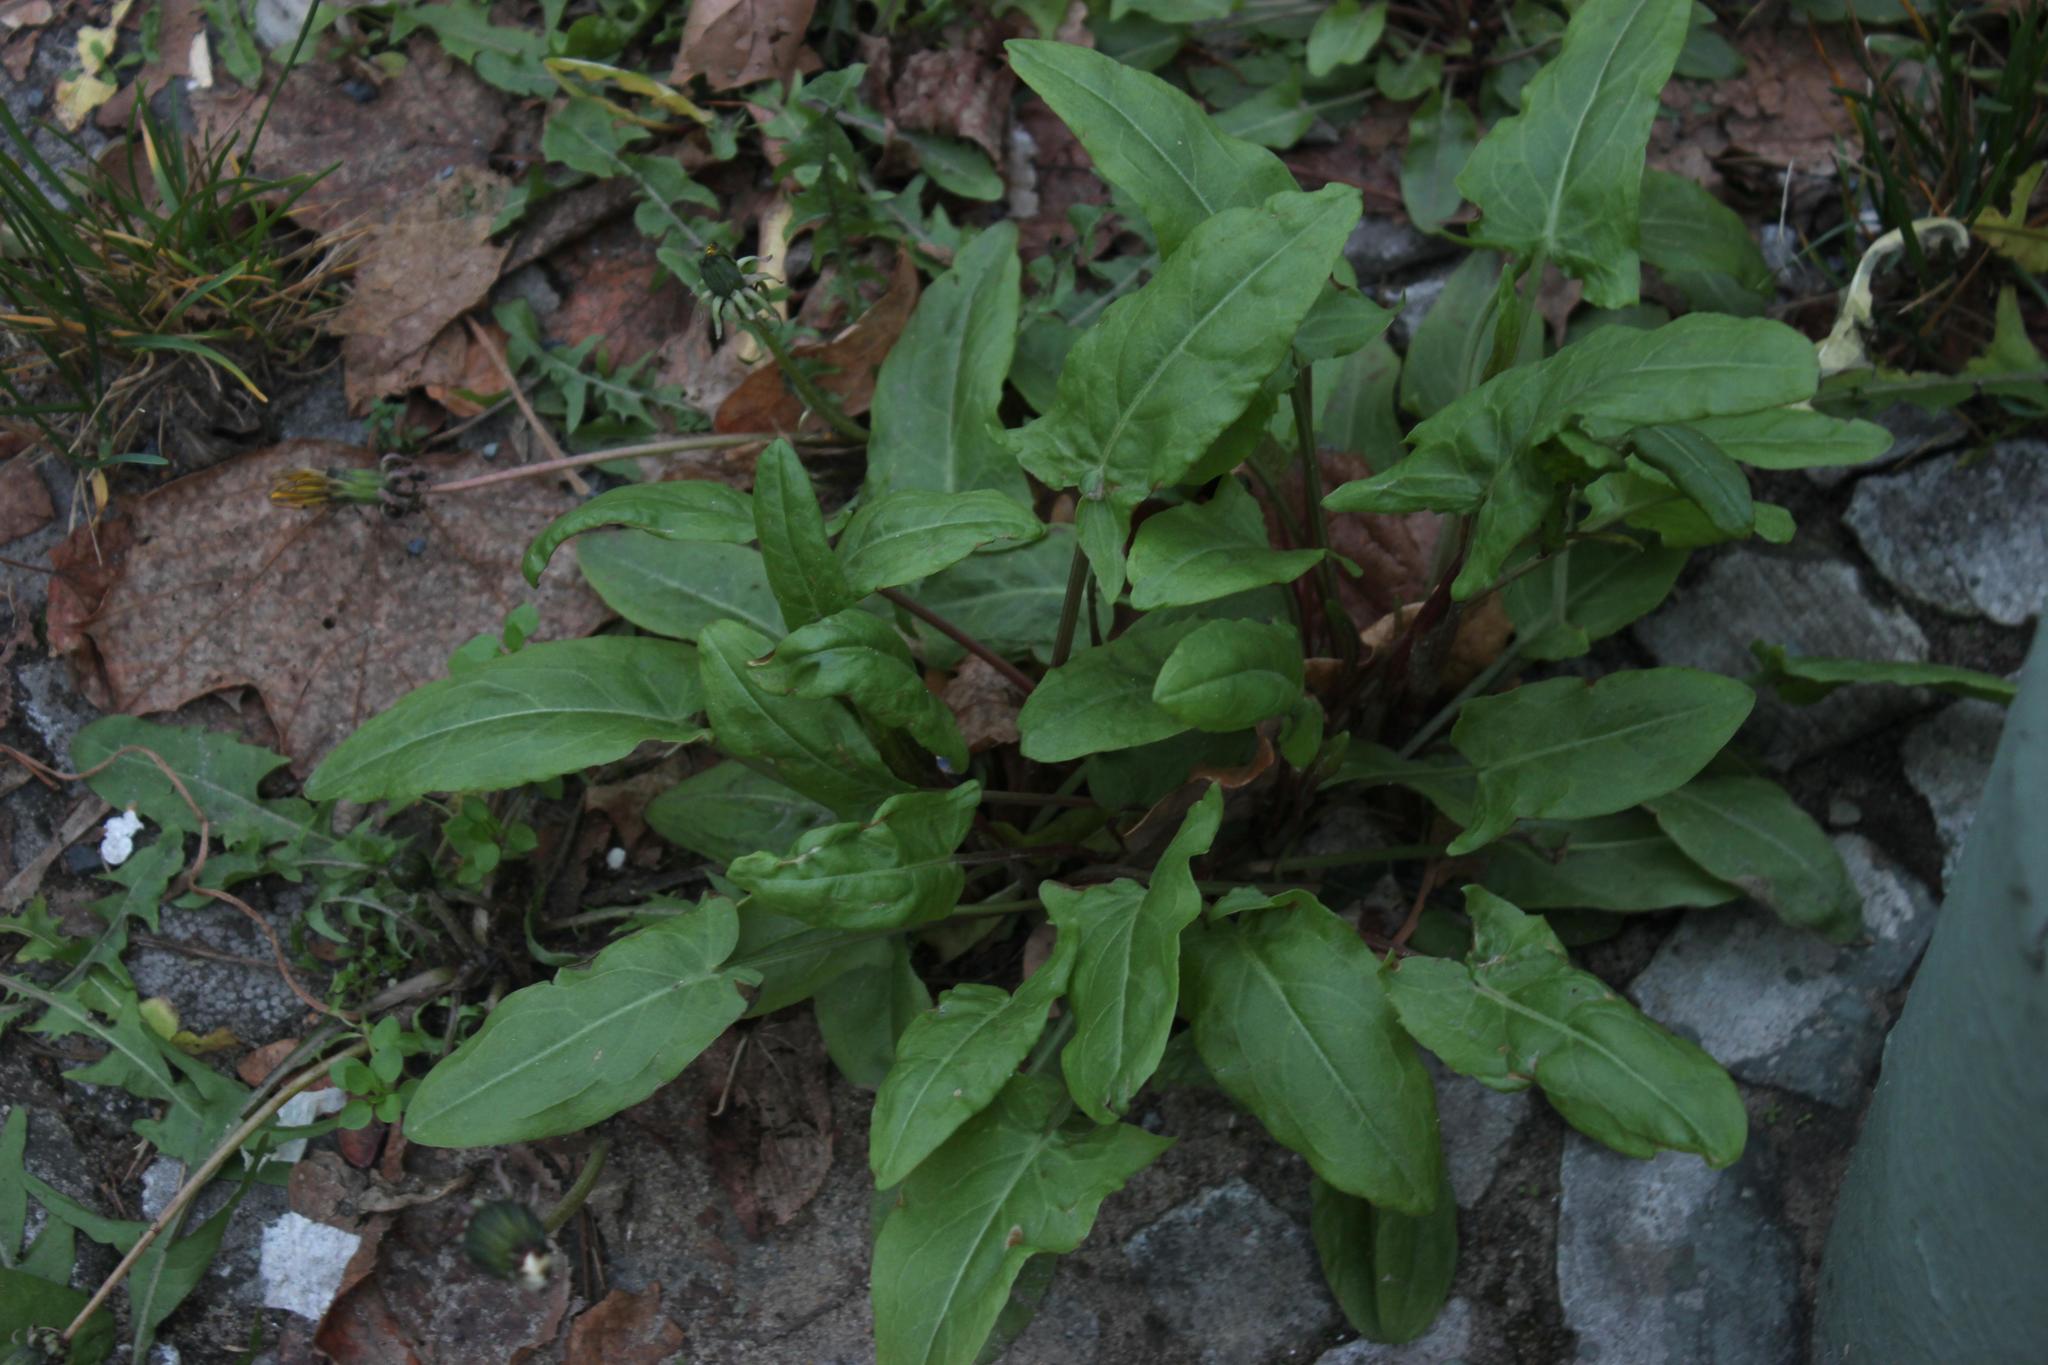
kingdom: Plantae
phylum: Tracheophyta
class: Magnoliopsida
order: Caryophyllales
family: Polygonaceae
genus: Rumex
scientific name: Rumex acetosa
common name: Garden sorrel
